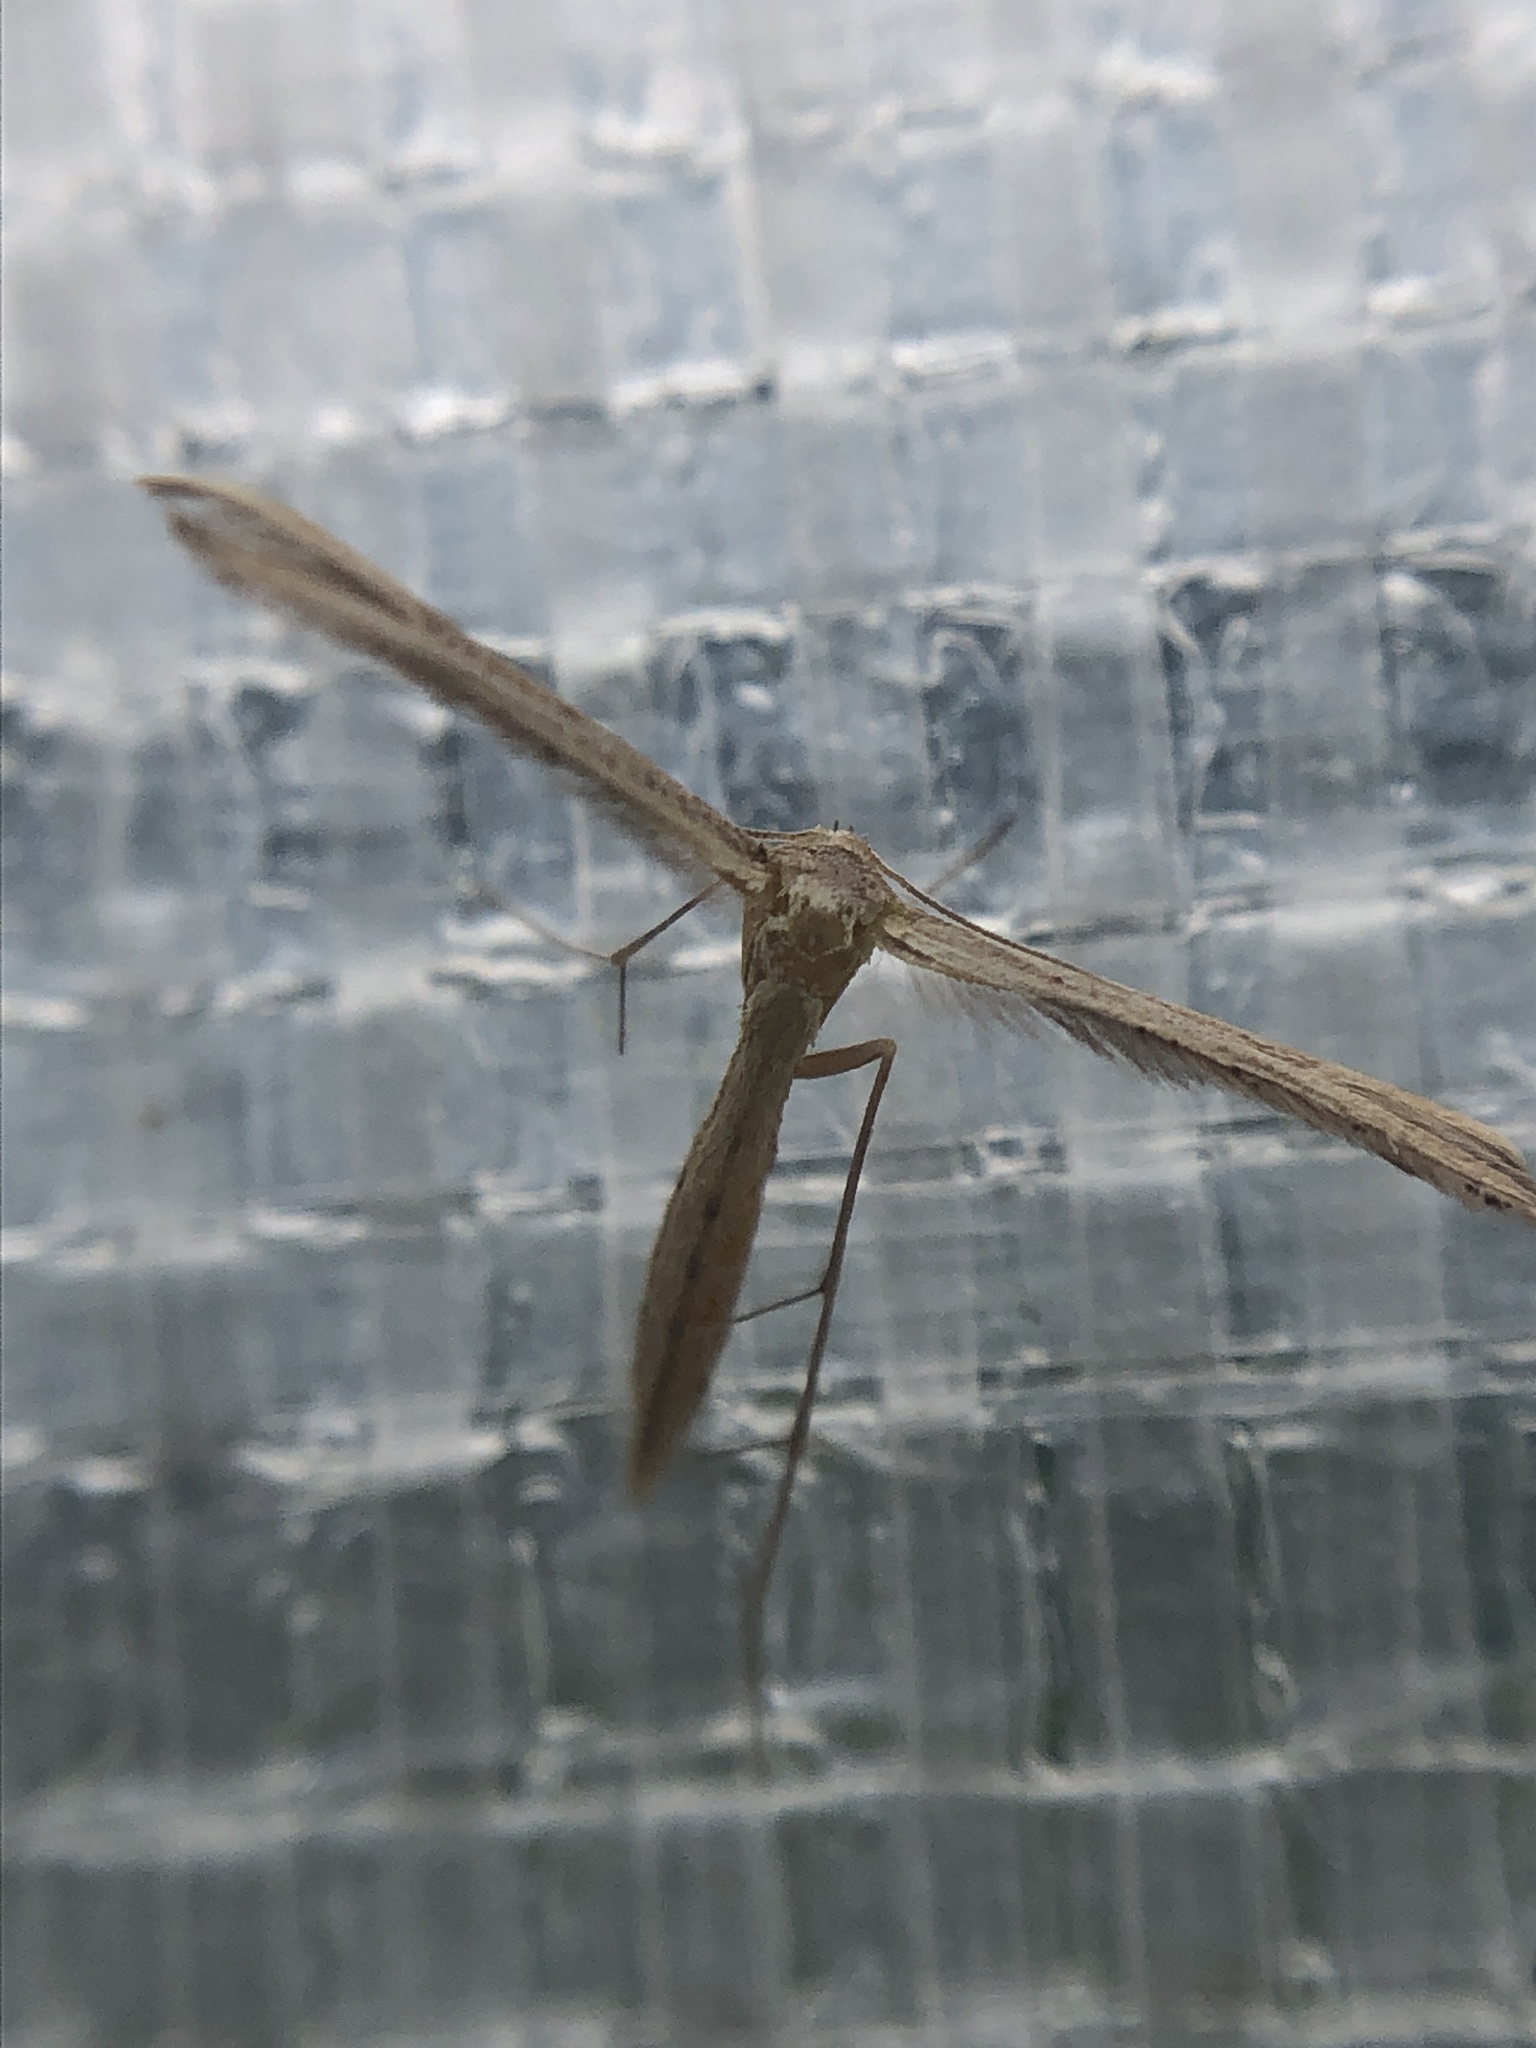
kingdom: Animalia
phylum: Arthropoda
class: Insecta
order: Lepidoptera
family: Pterophoridae
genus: Exelastis
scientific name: Exelastis pumilio
